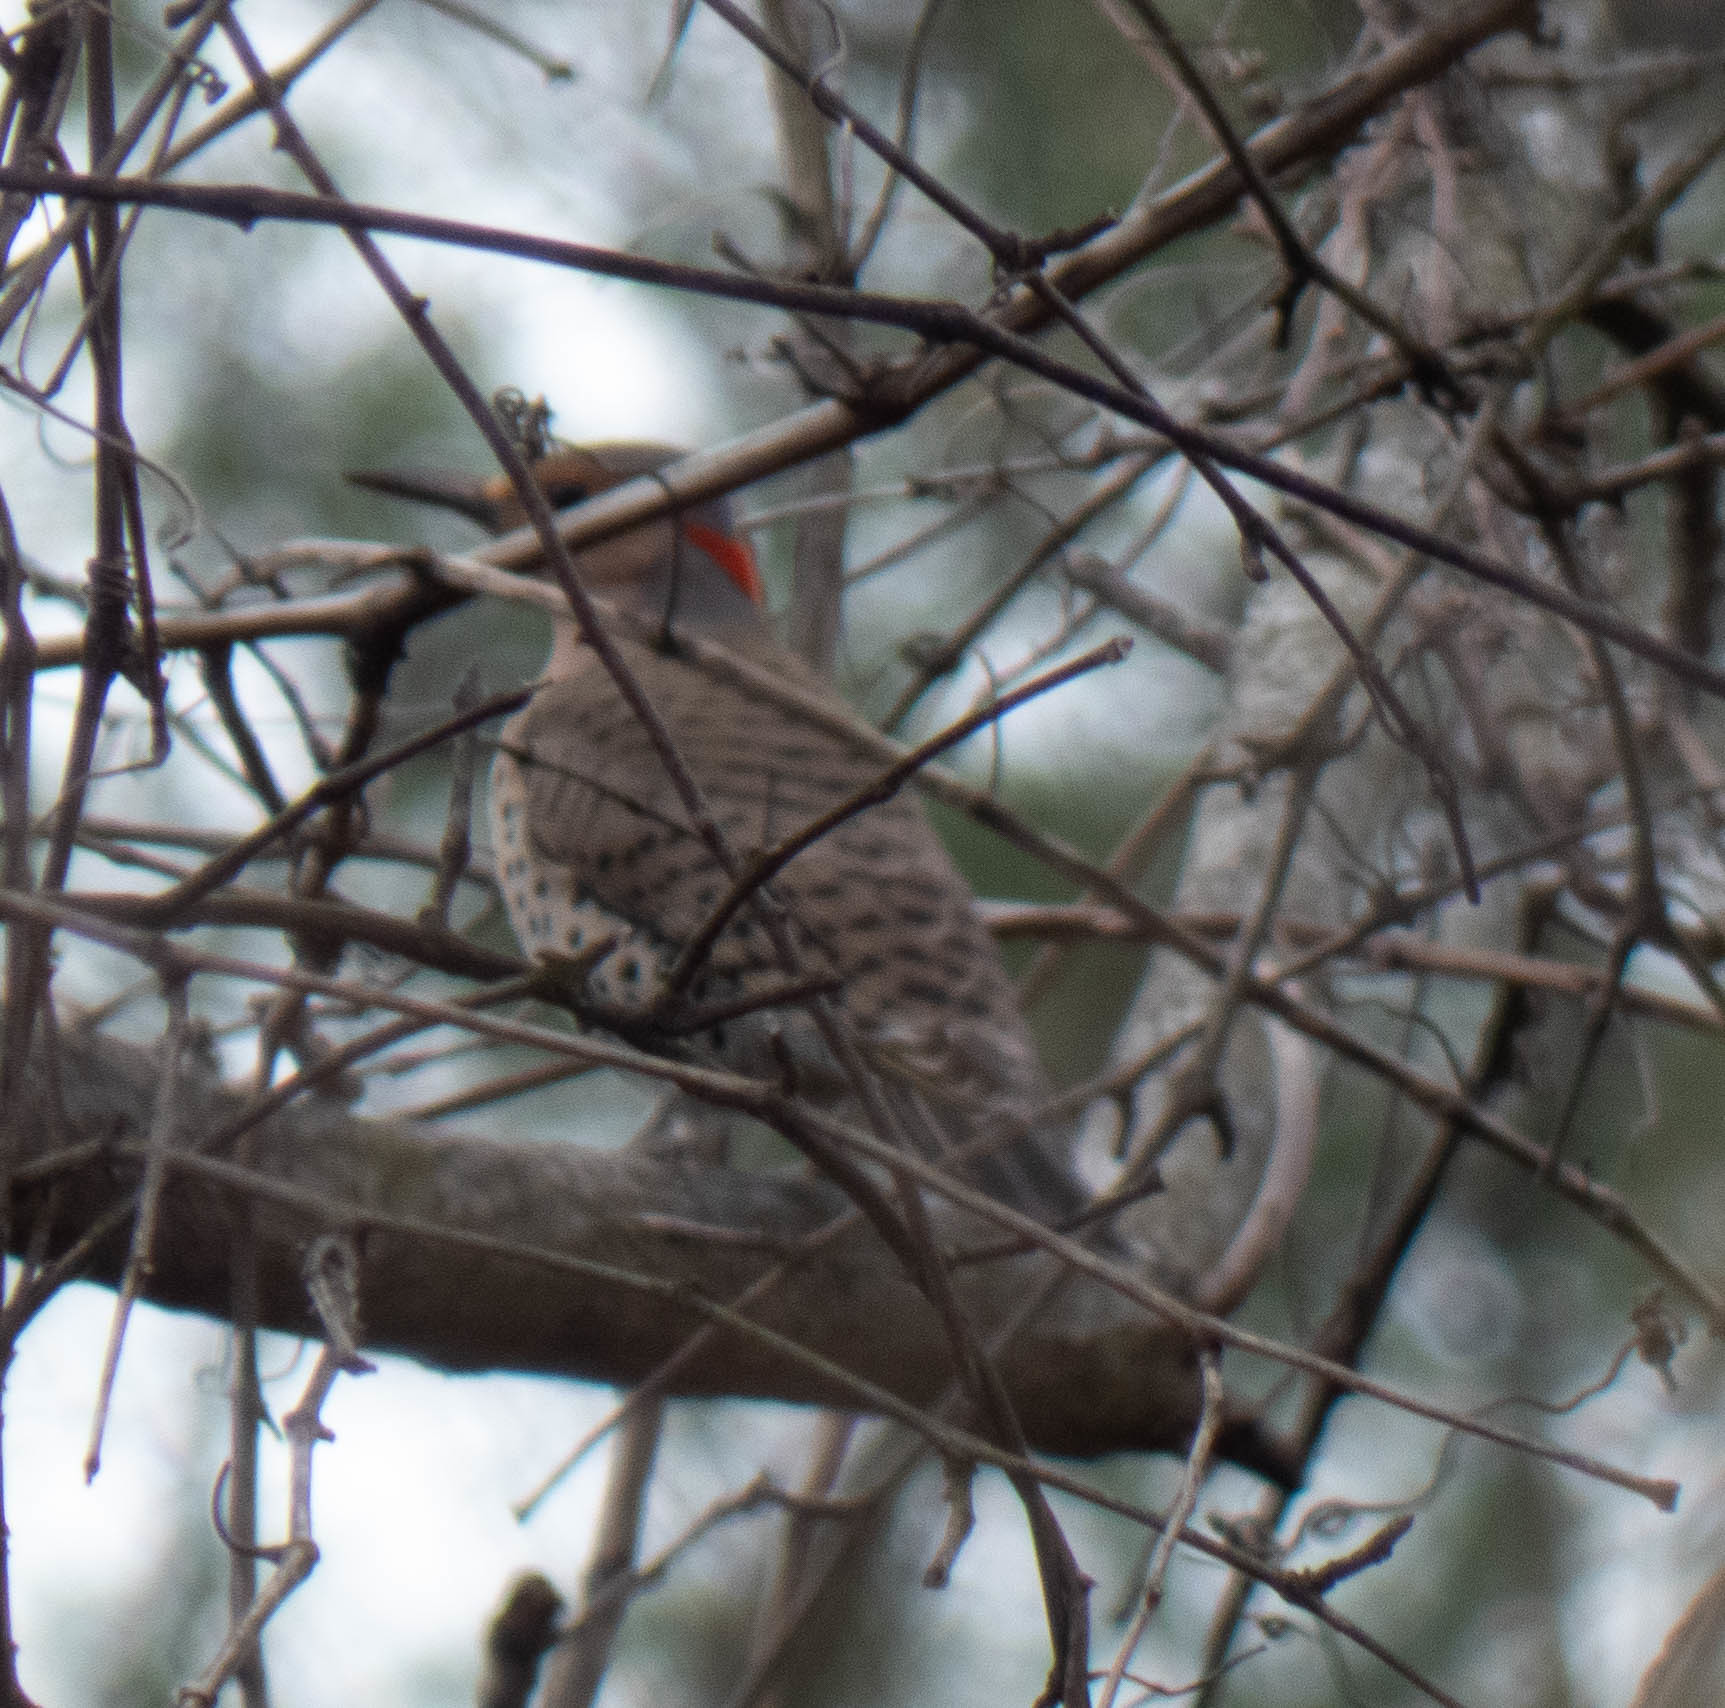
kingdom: Animalia
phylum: Chordata
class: Aves
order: Piciformes
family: Picidae
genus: Colaptes
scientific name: Colaptes auratus
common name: Northern flicker
